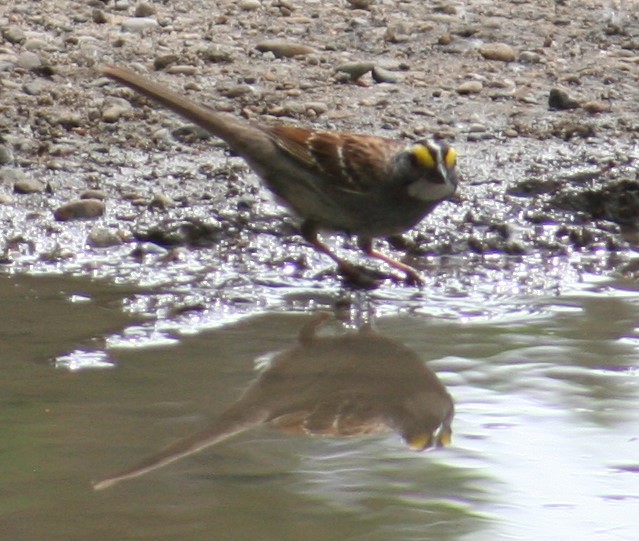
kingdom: Animalia
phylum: Chordata
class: Aves
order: Passeriformes
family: Passerellidae
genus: Zonotrichia
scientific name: Zonotrichia albicollis
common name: White-throated sparrow
